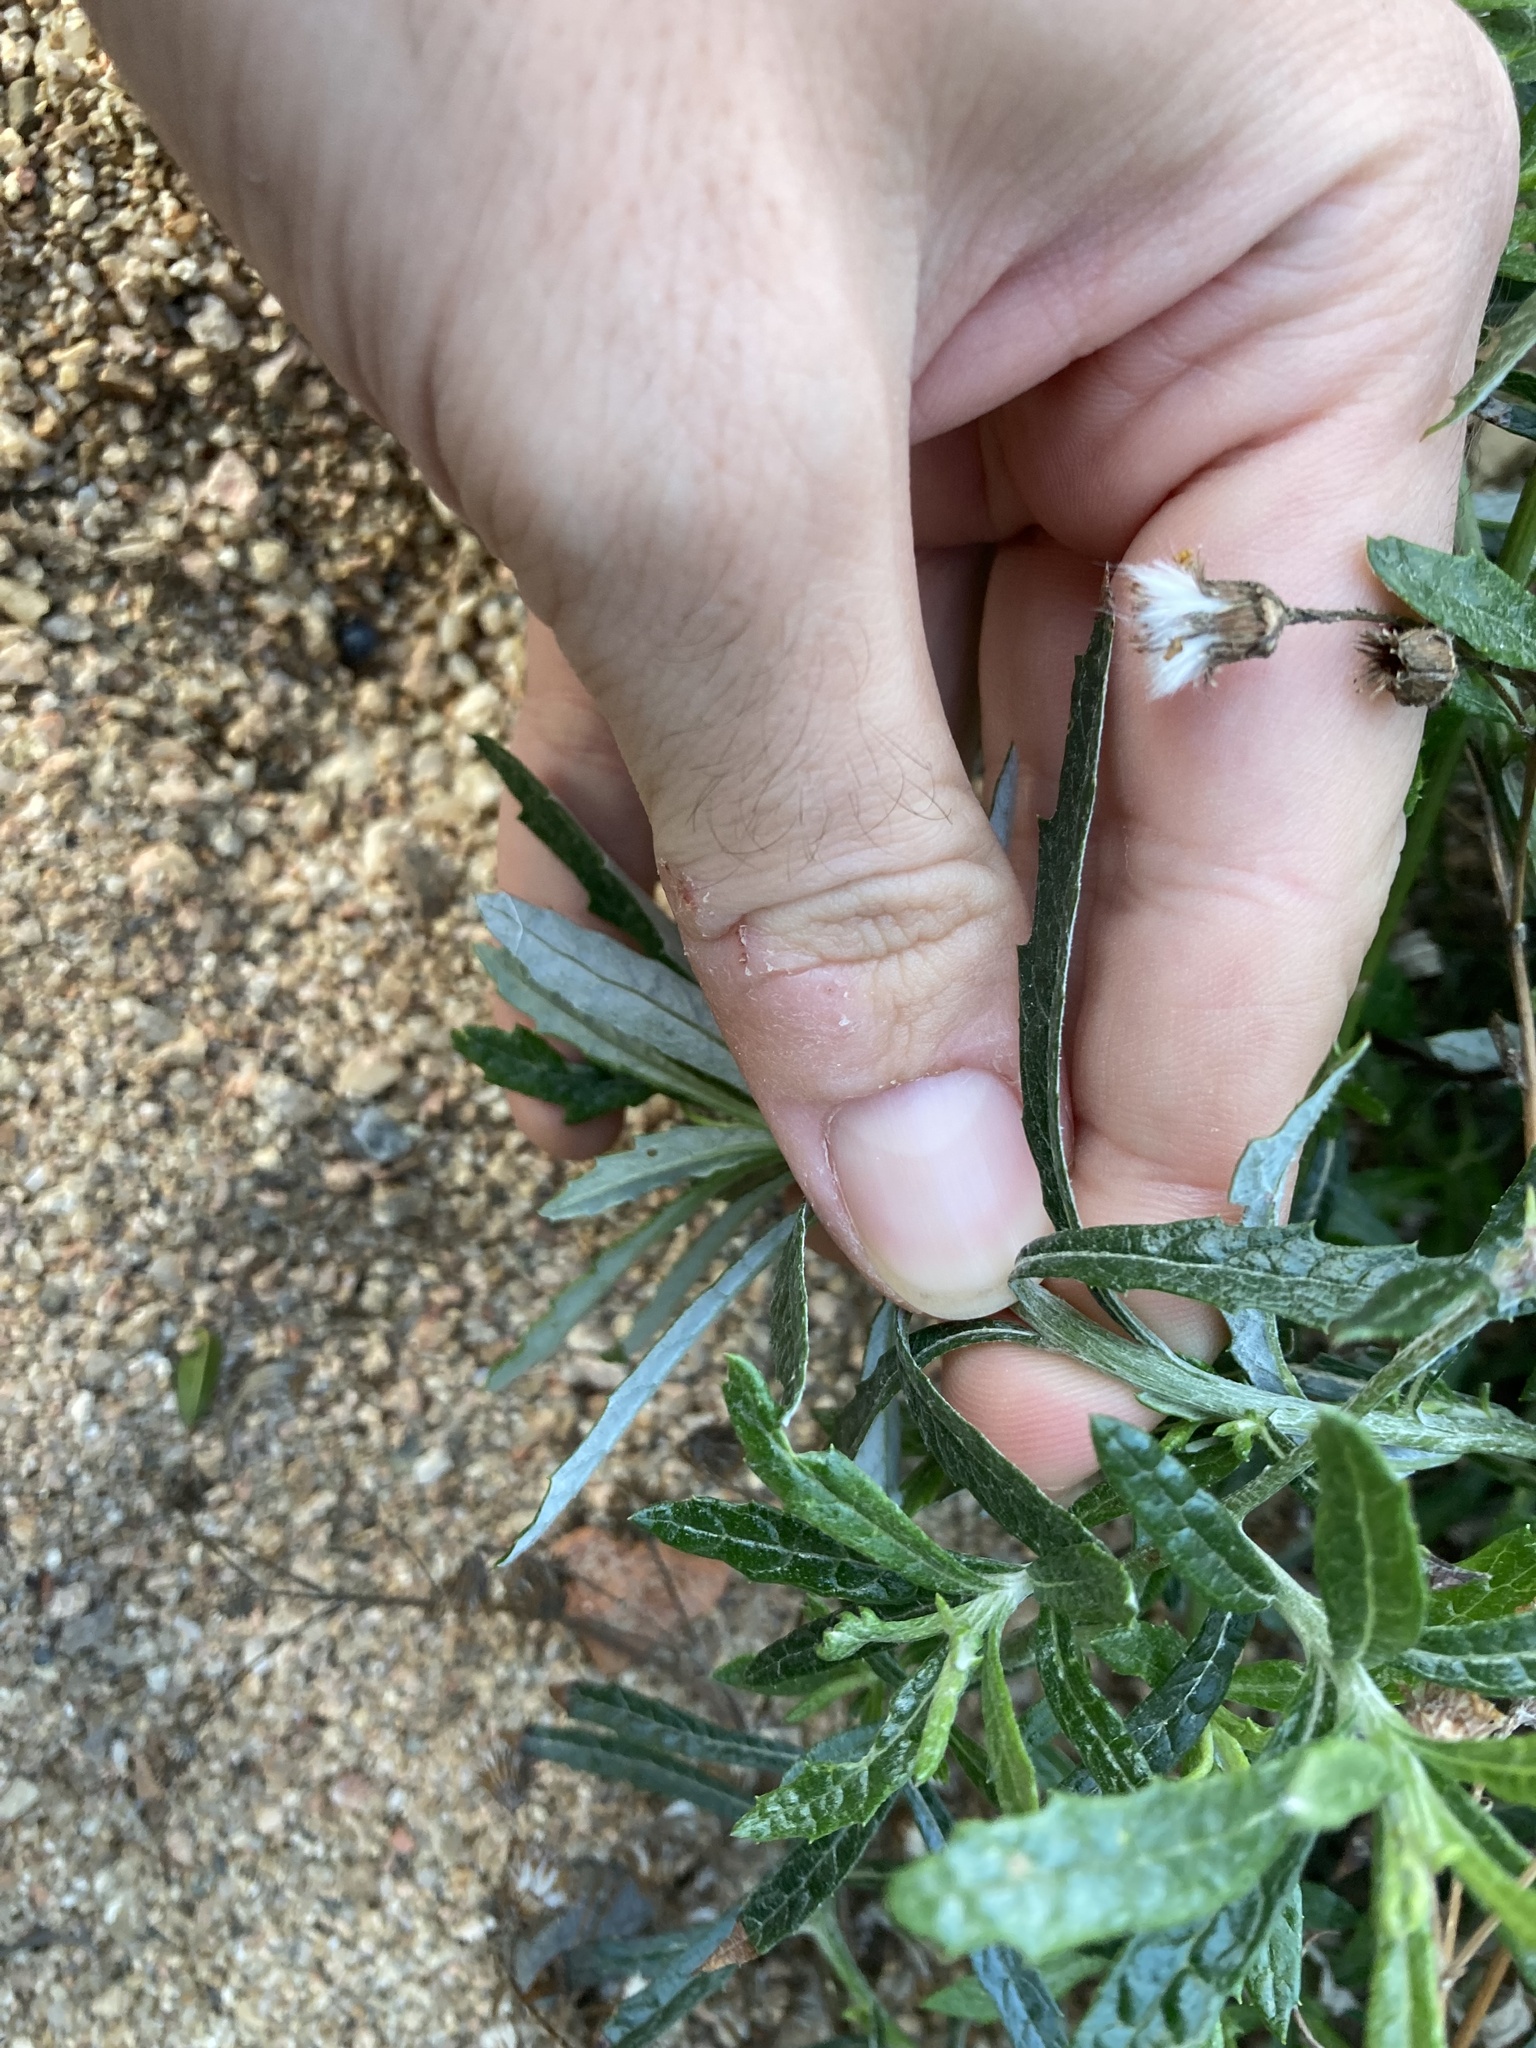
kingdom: Plantae
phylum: Tracheophyta
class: Magnoliopsida
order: Asterales
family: Asteraceae
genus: Senecio
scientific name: Senecio pterophorus
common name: Shoddy ragwort
